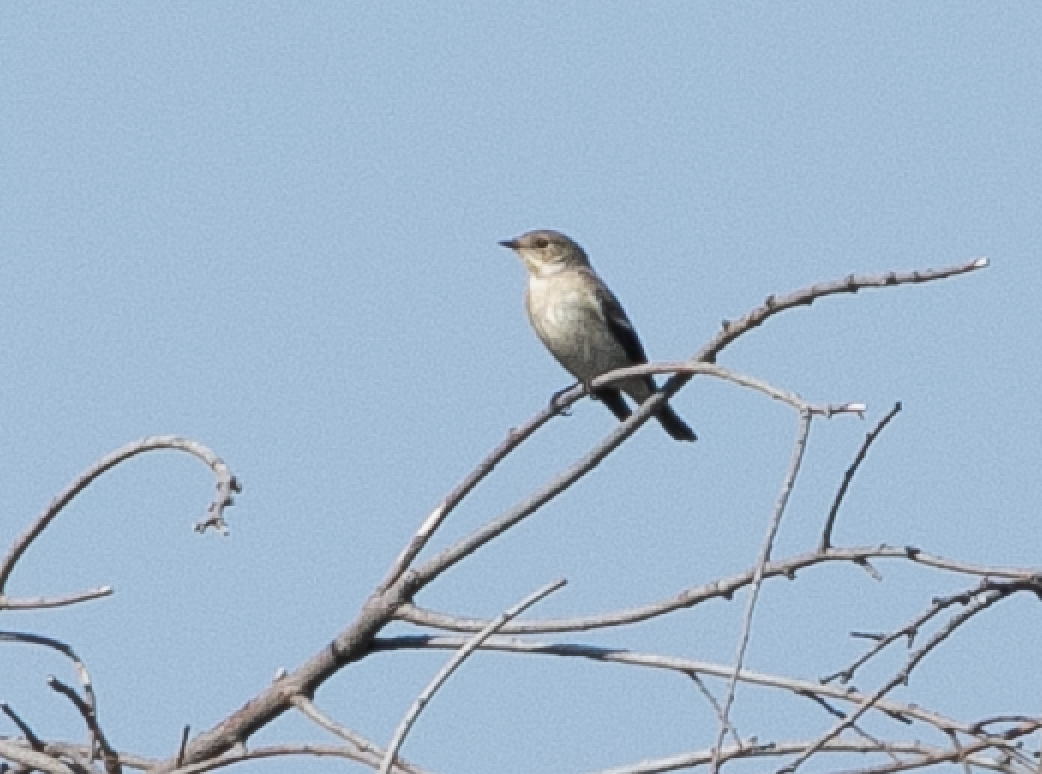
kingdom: Animalia
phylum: Chordata
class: Aves
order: Passeriformes
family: Muscicapidae
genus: Ficedula
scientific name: Ficedula hypoleuca
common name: European pied flycatcher
